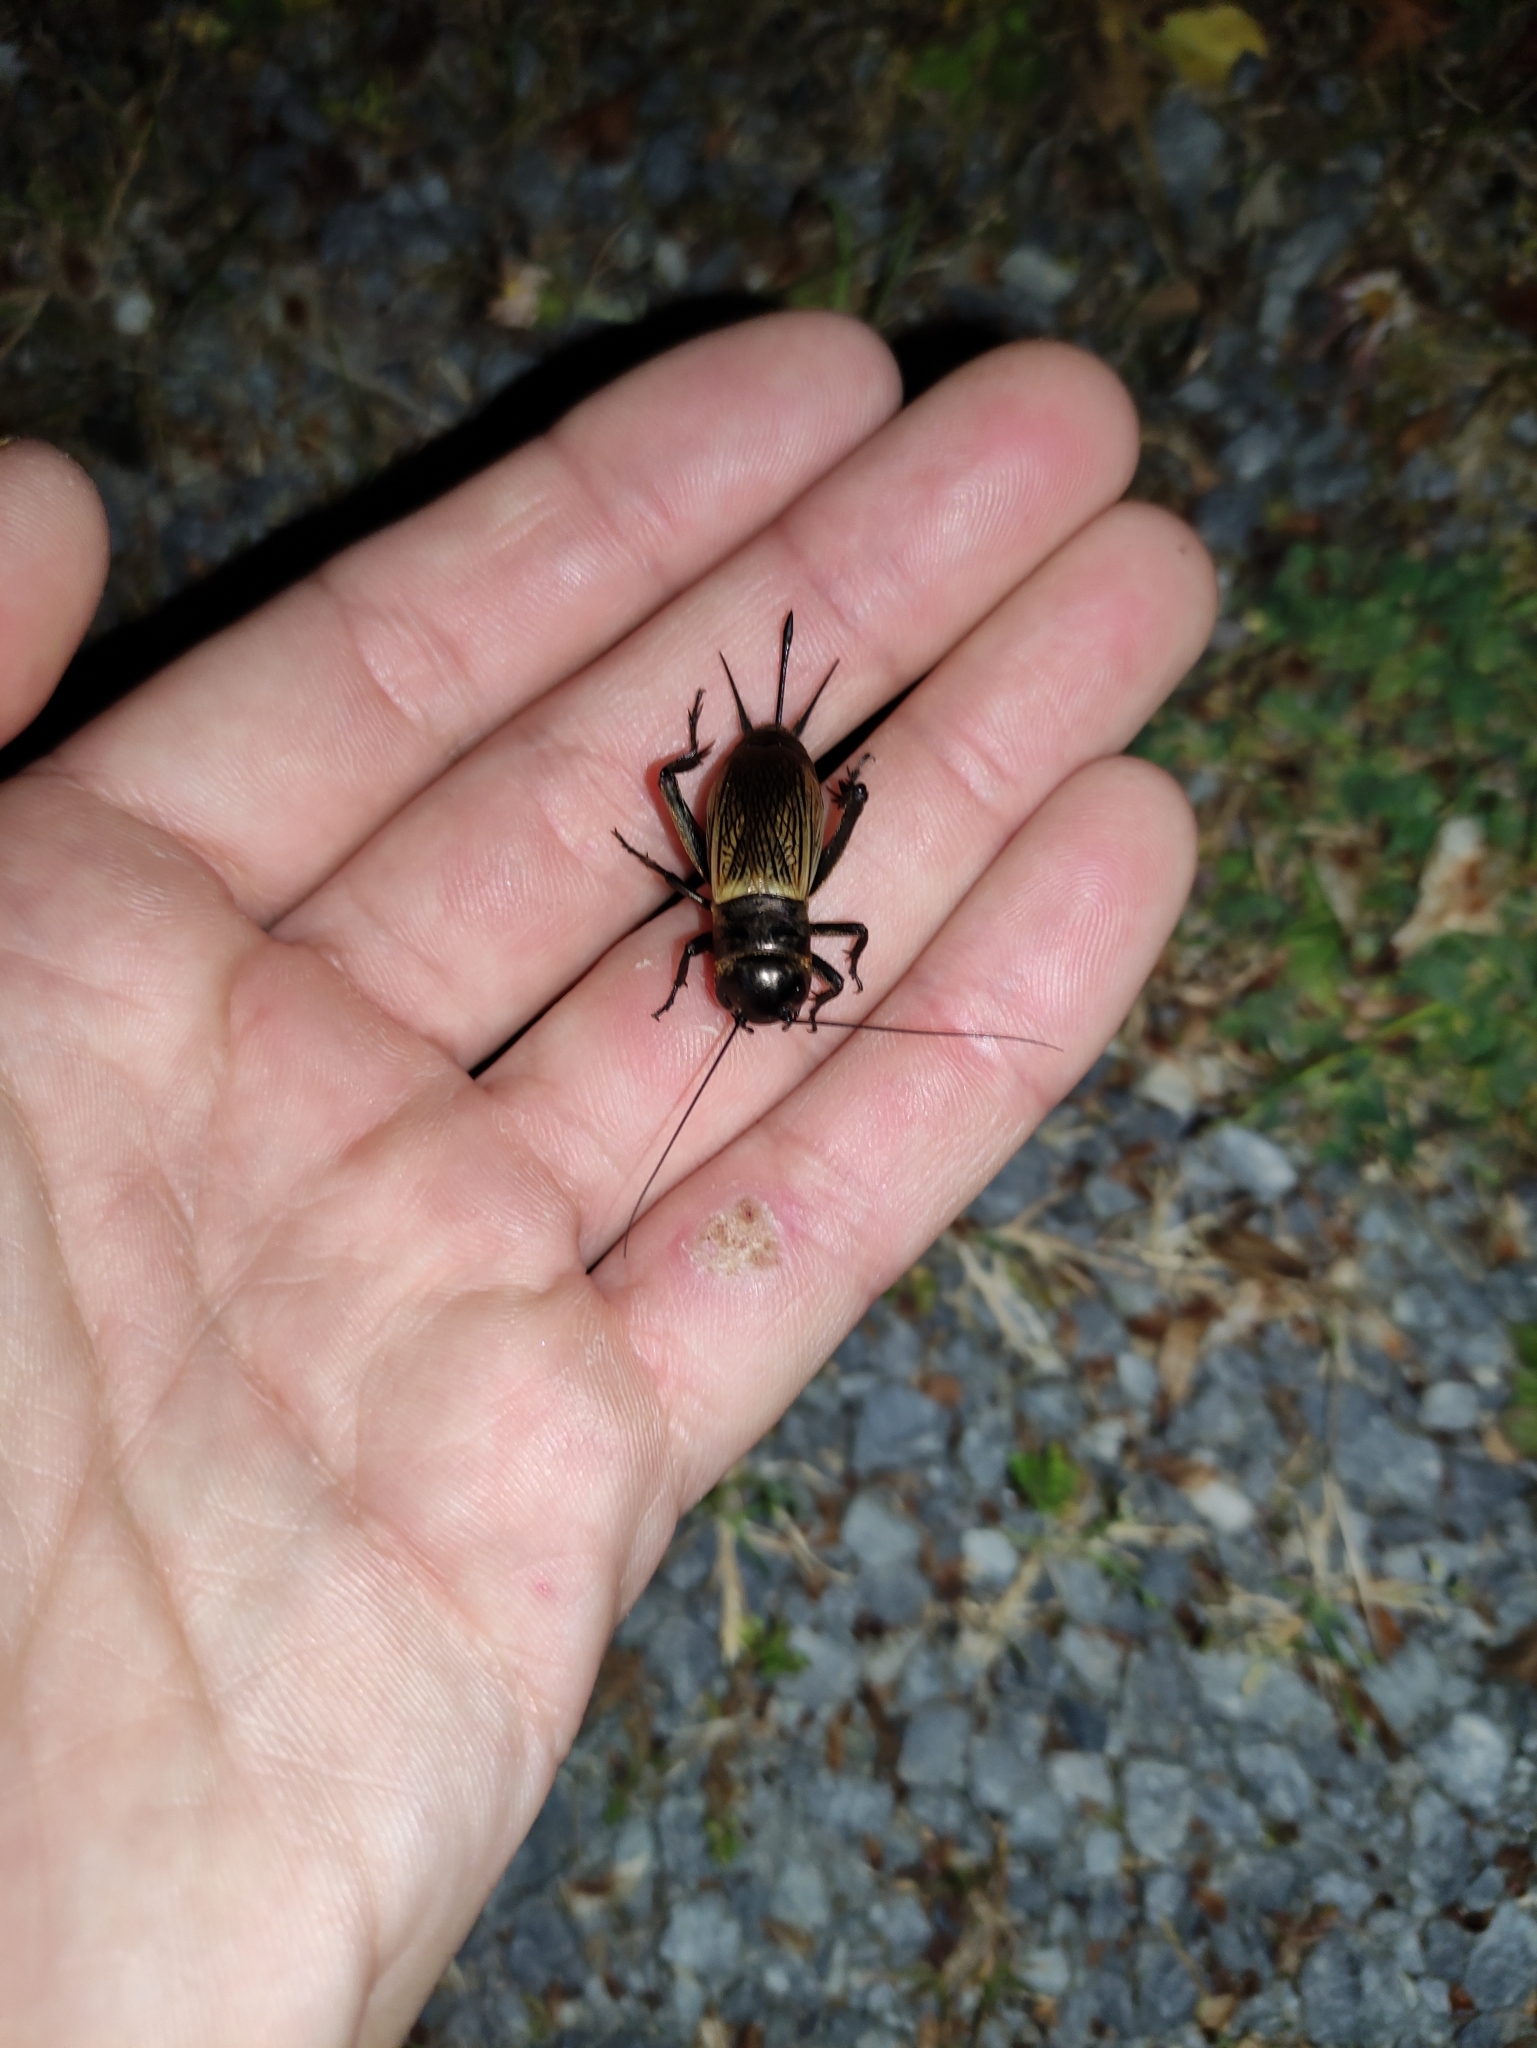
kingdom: Animalia
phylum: Arthropoda
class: Insecta
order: Orthoptera
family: Gryllidae
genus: Gryllus
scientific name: Gryllus campestris
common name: Field cricket
